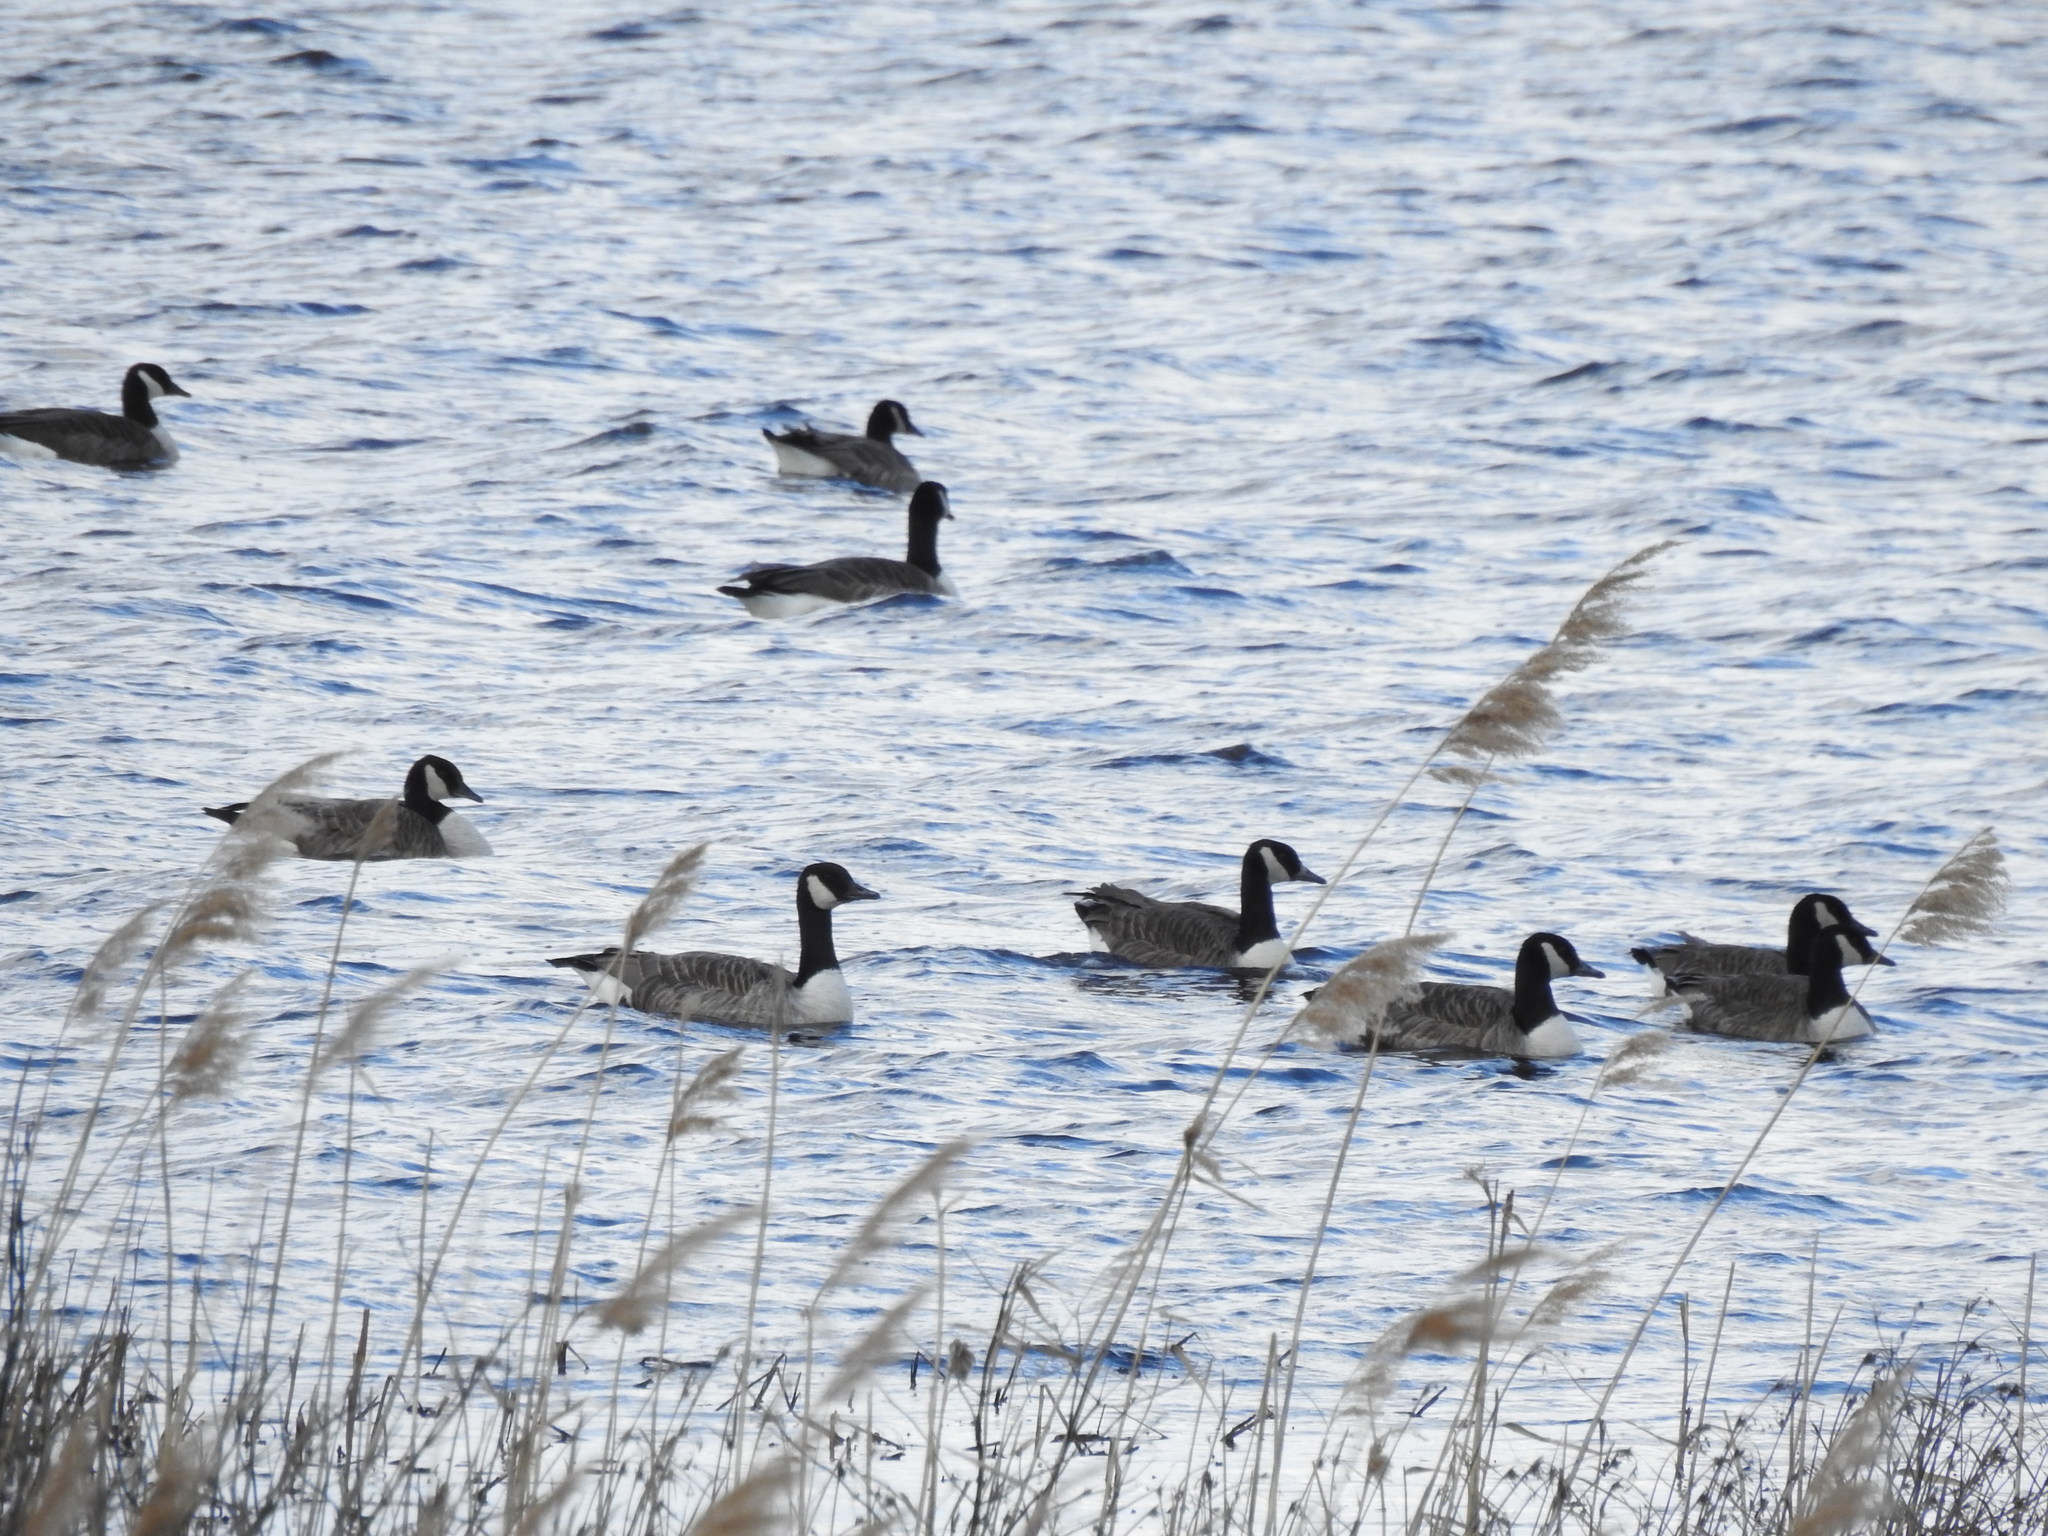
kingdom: Animalia
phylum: Chordata
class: Aves
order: Anseriformes
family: Anatidae
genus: Branta
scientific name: Branta canadensis
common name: Canada goose
